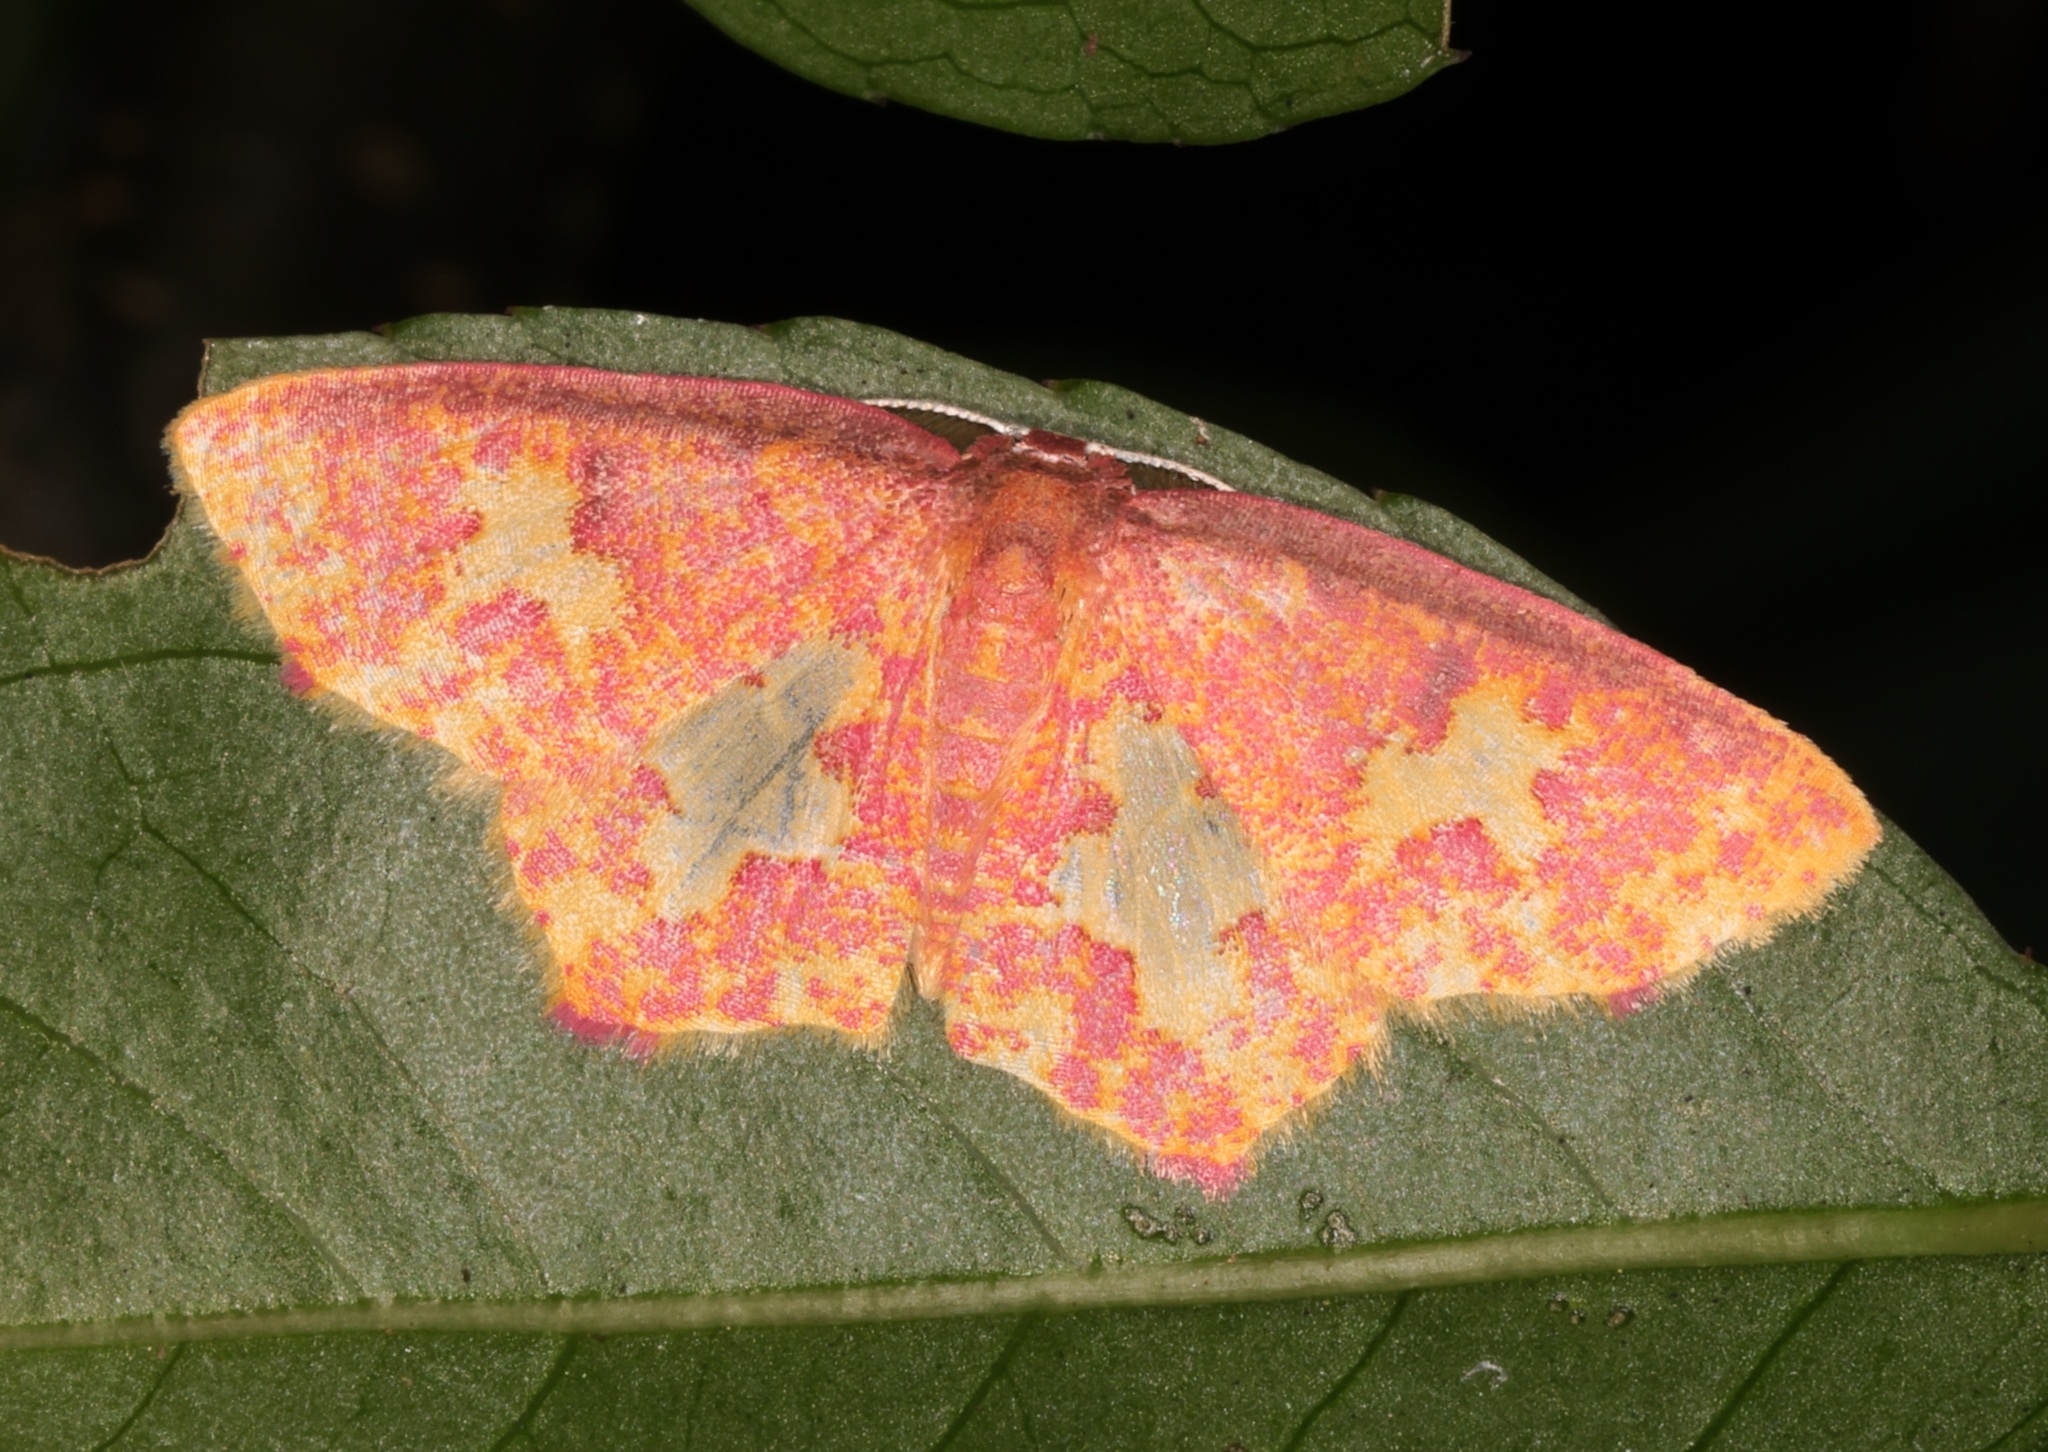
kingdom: Animalia
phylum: Arthropoda
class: Insecta
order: Lepidoptera
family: Geometridae
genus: Chrysocraspeda
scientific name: Chrysocraspeda faganaria
